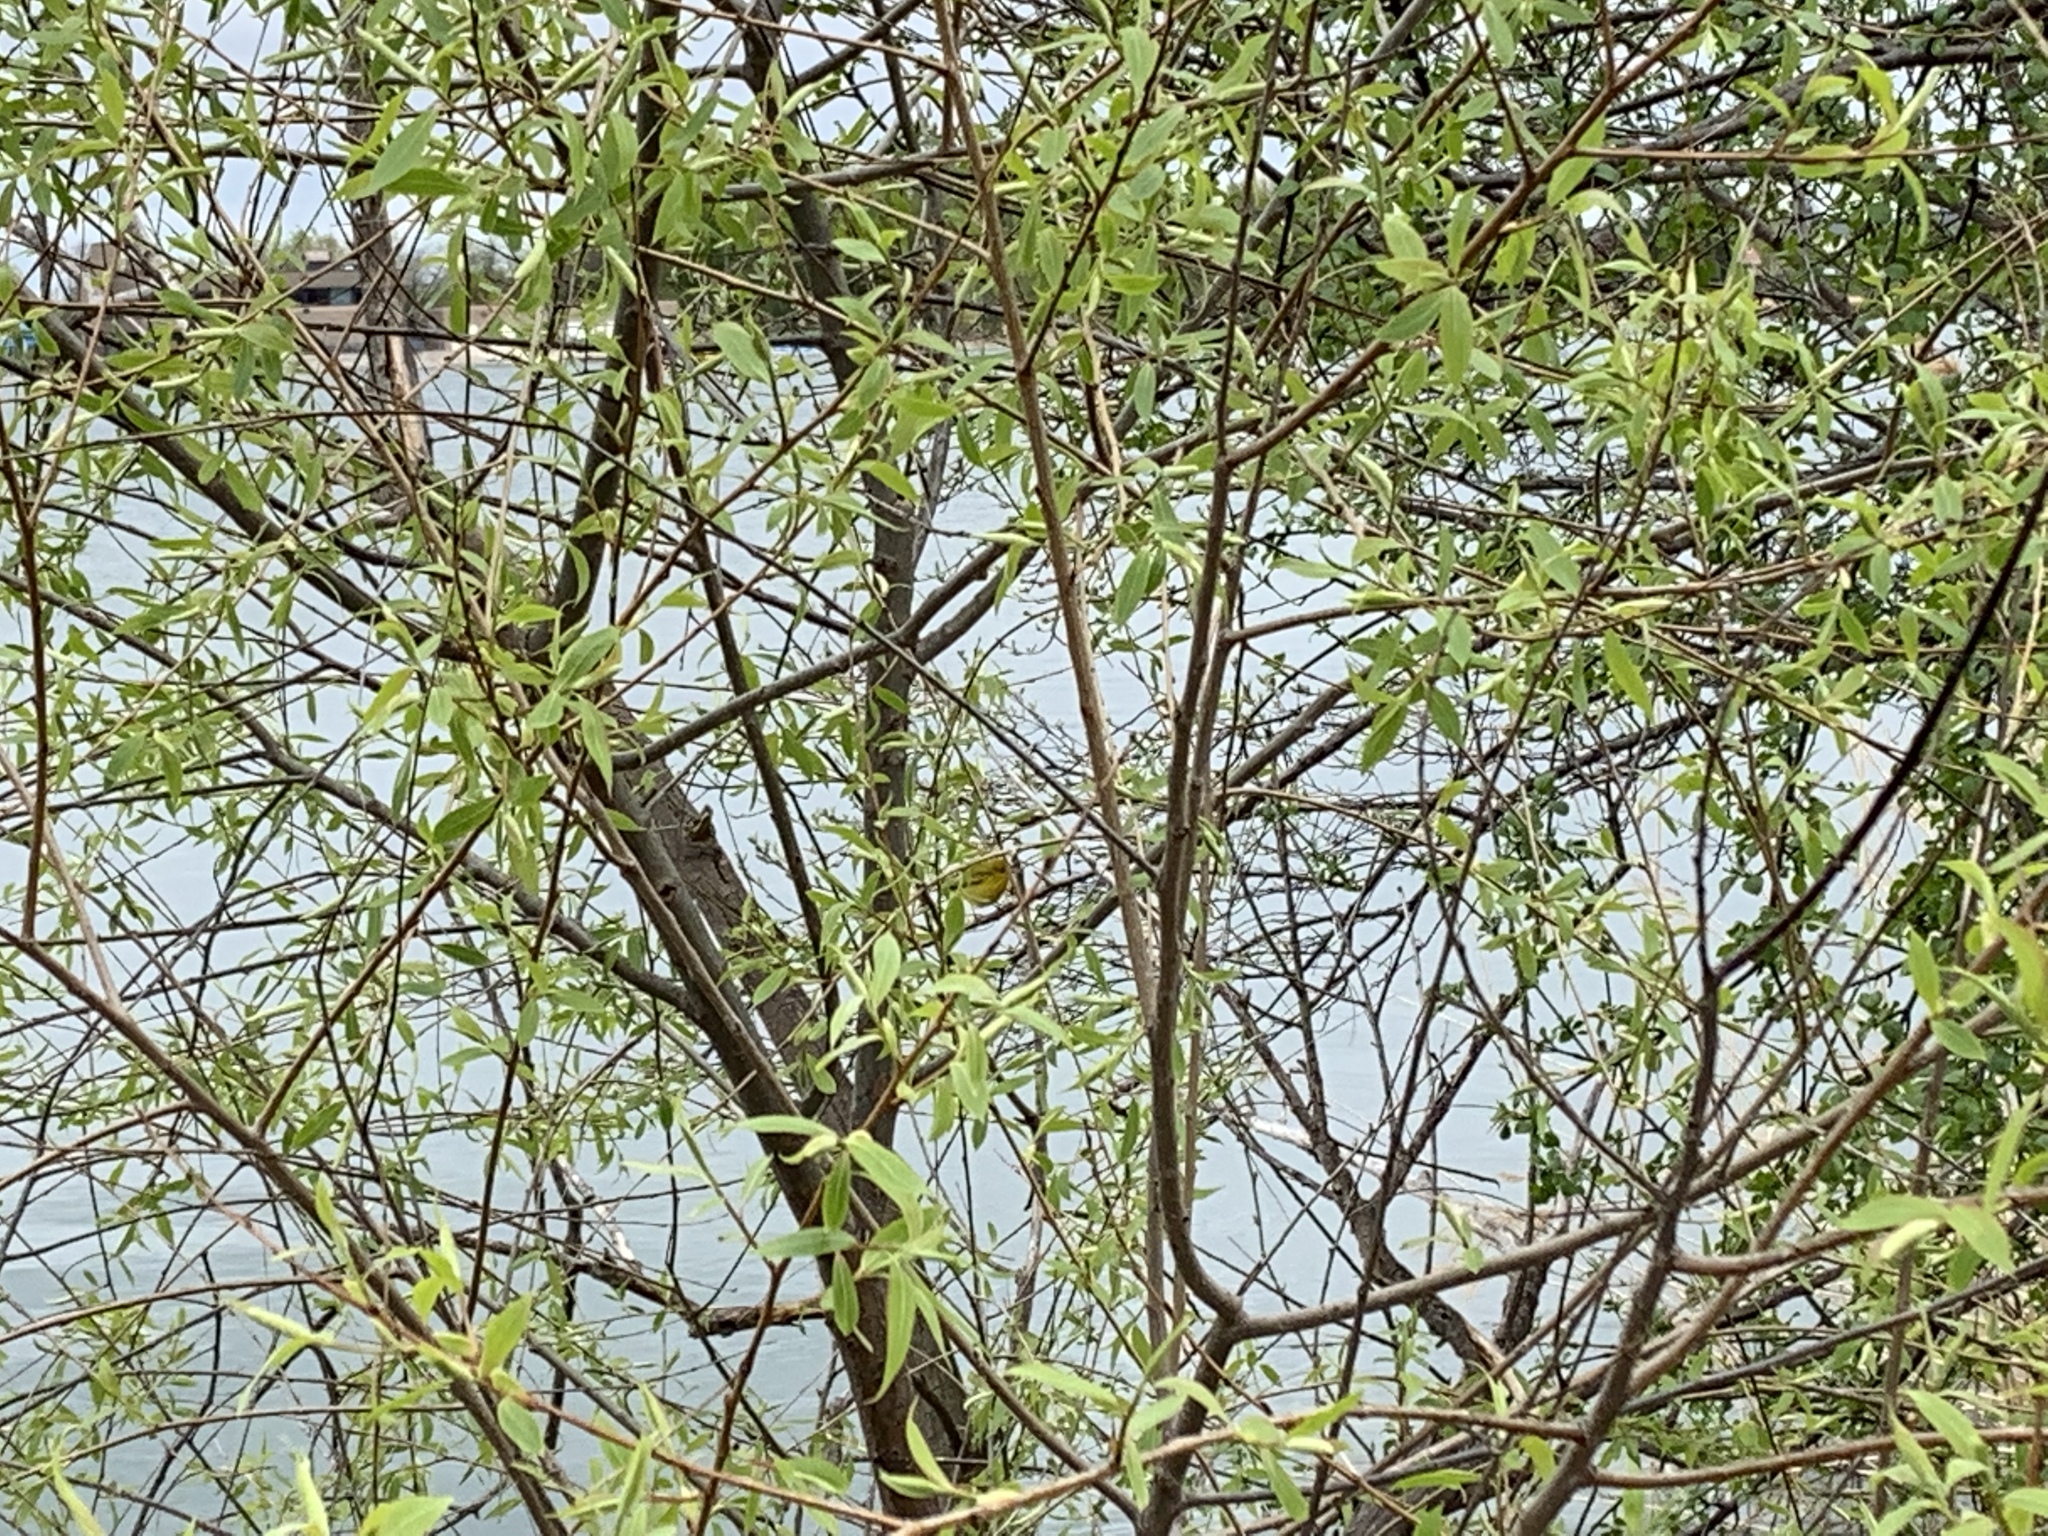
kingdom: Animalia
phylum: Chordata
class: Aves
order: Passeriformes
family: Parulidae
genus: Setophaga
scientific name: Setophaga petechia
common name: Yellow warbler
